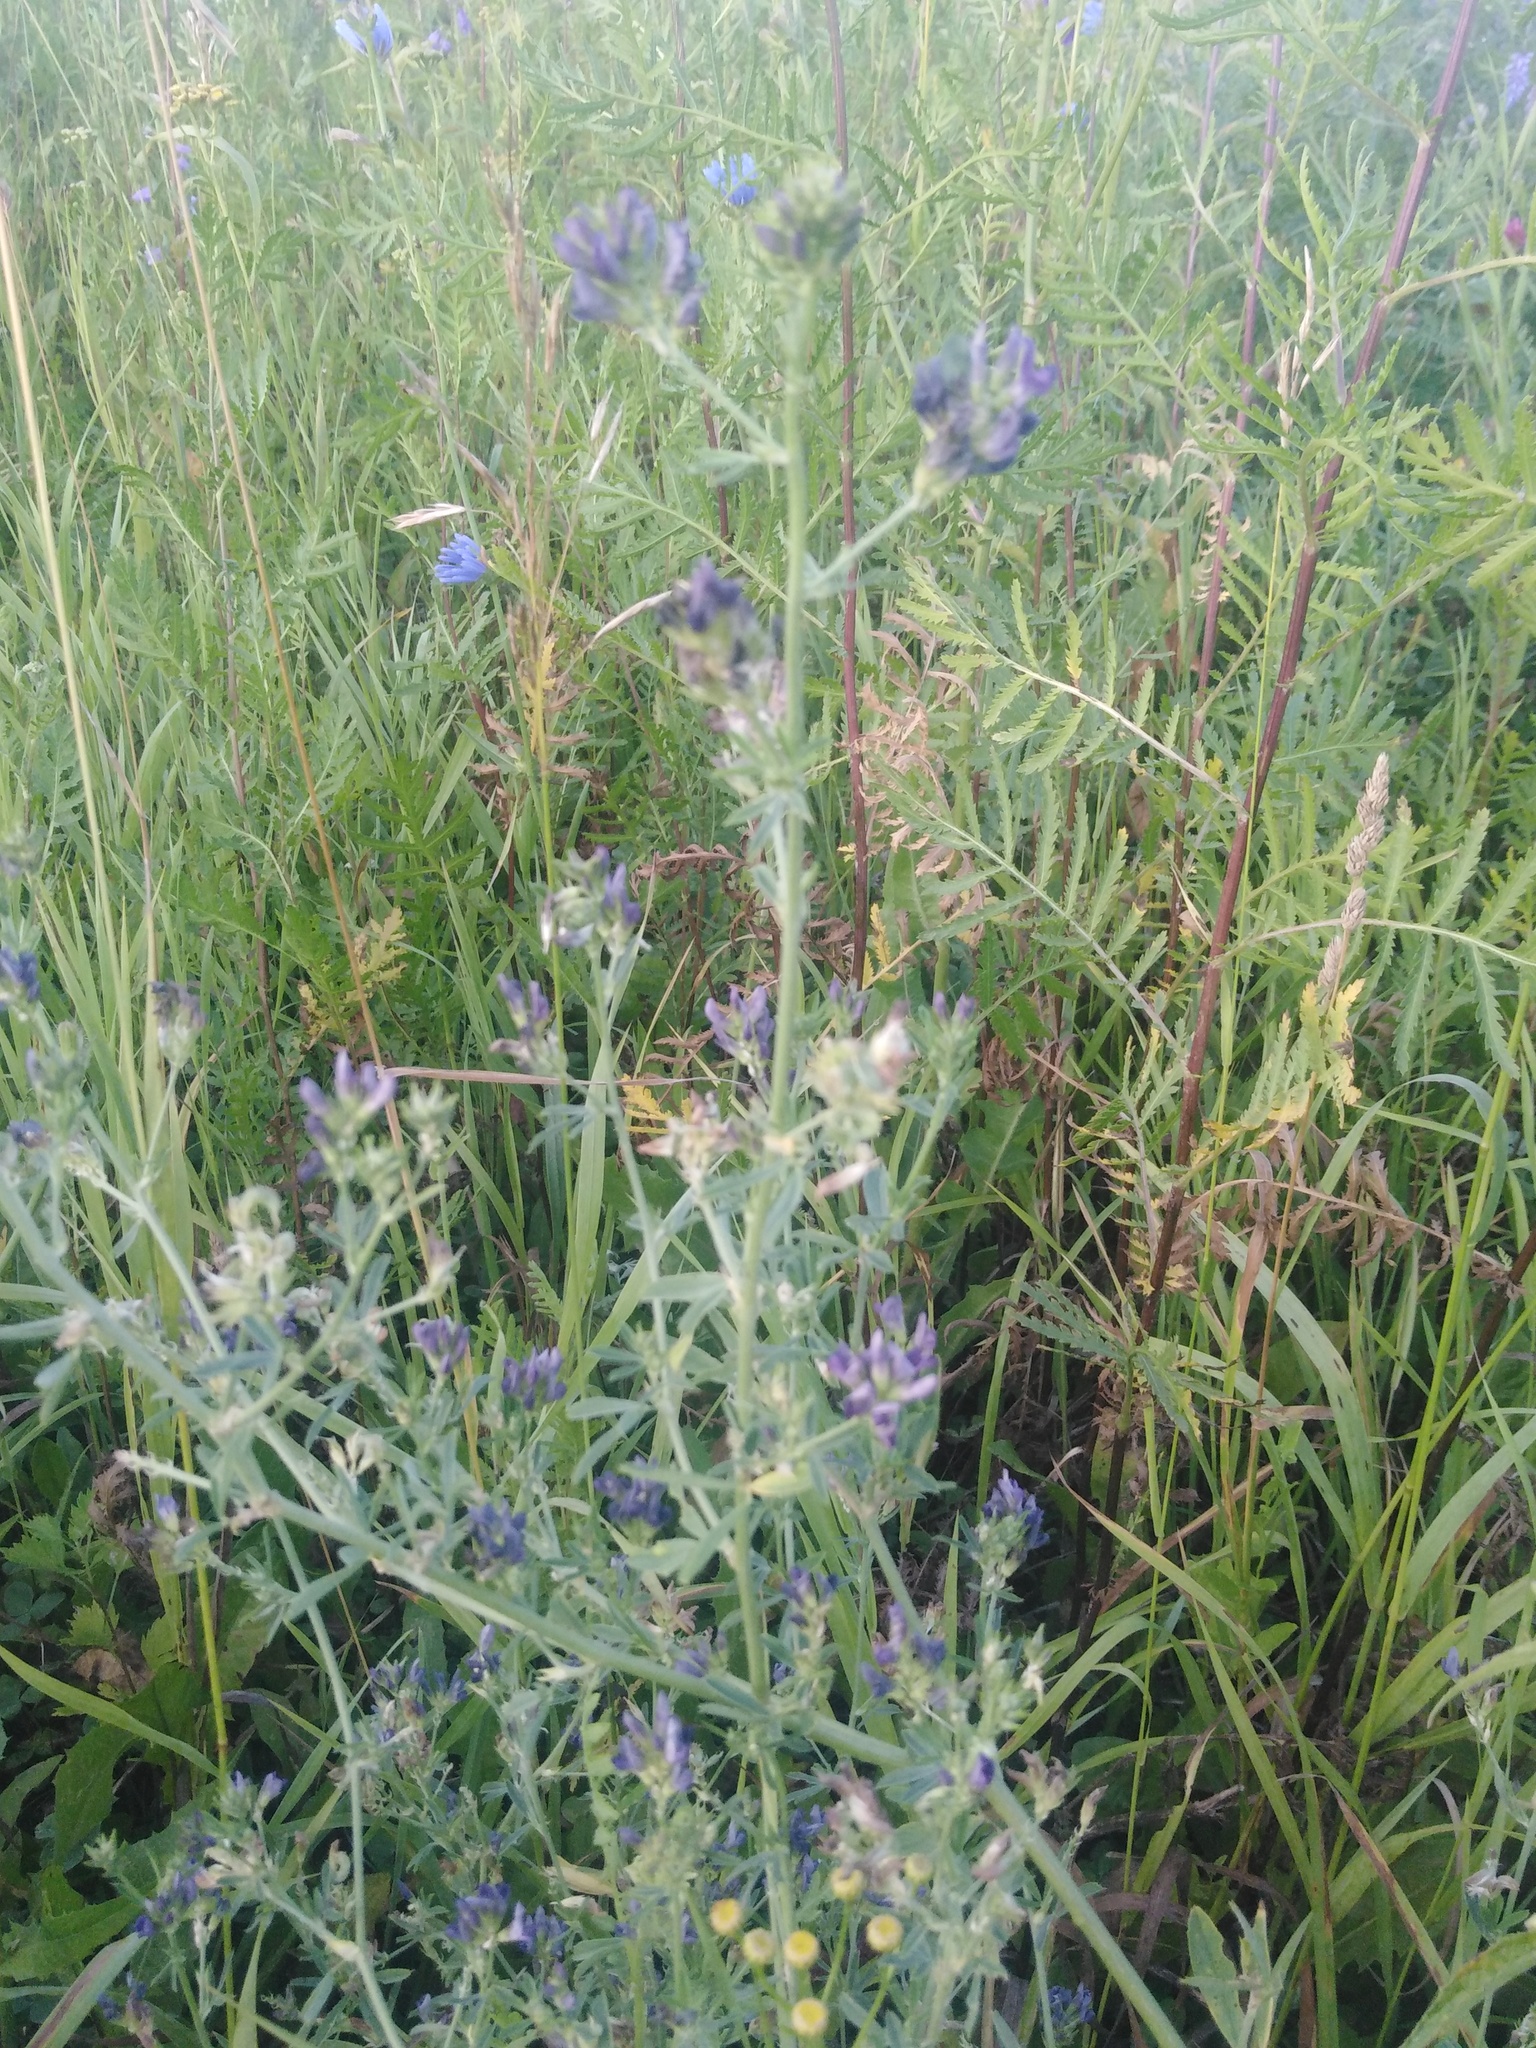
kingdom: Plantae
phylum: Tracheophyta
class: Magnoliopsida
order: Fabales
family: Fabaceae
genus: Medicago
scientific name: Medicago sativa
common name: Alfalfa
